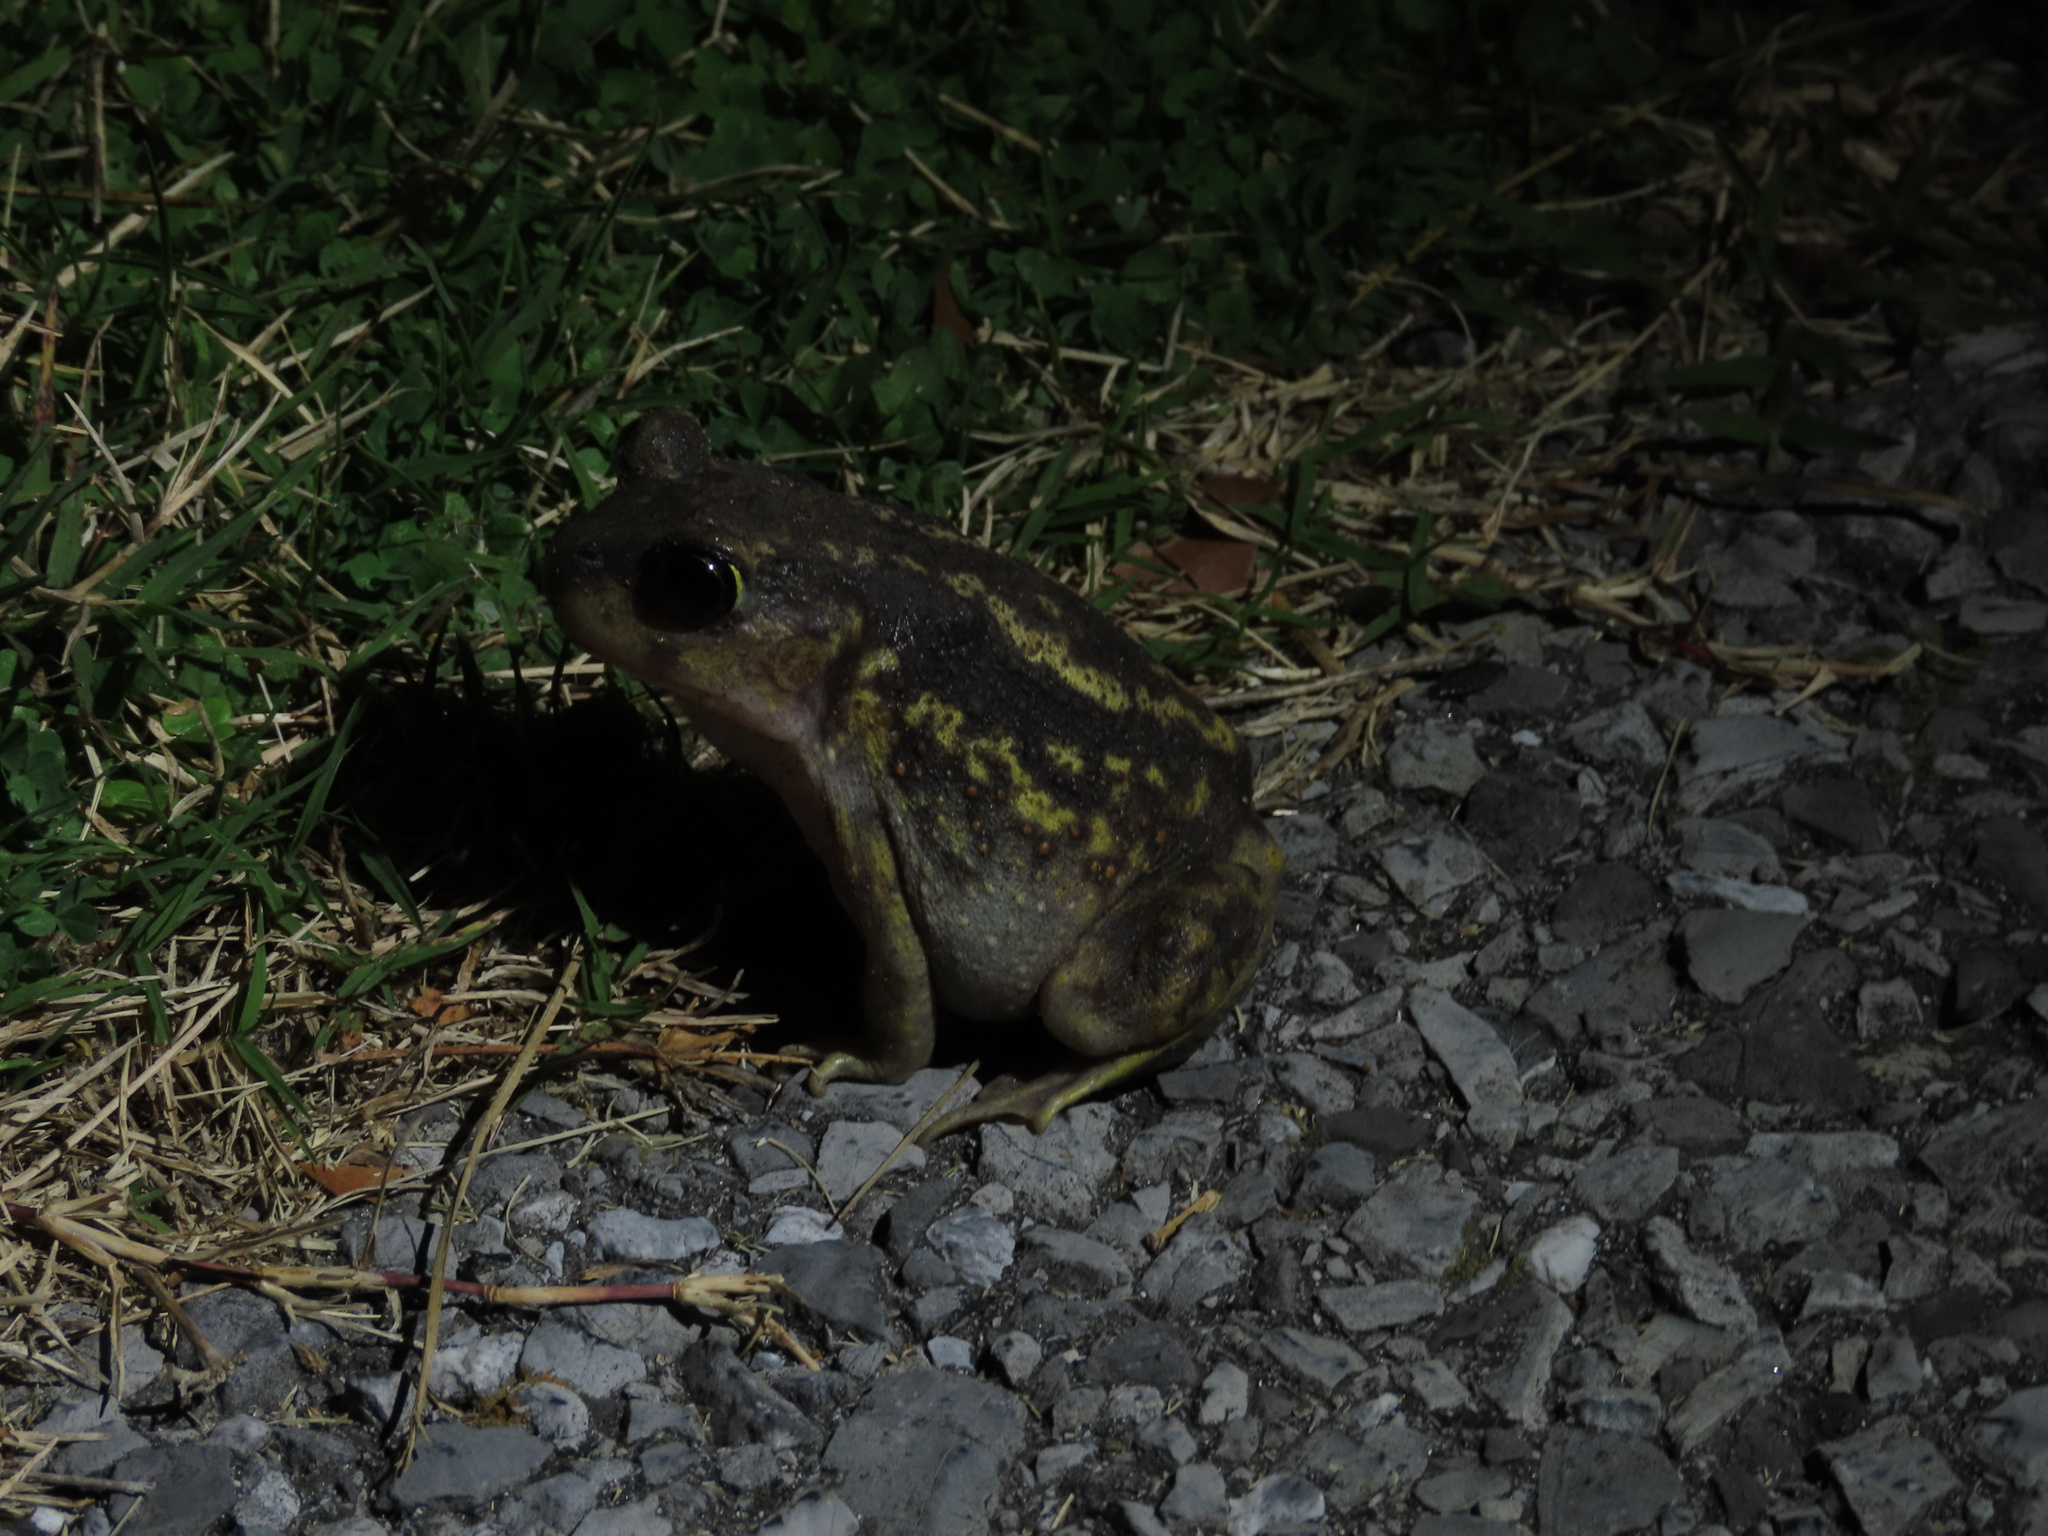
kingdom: Animalia
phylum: Chordata
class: Amphibia
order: Anura
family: Scaphiopodidae
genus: Scaphiopus
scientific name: Scaphiopus holbrookii
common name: Eastern spadefoot toad
